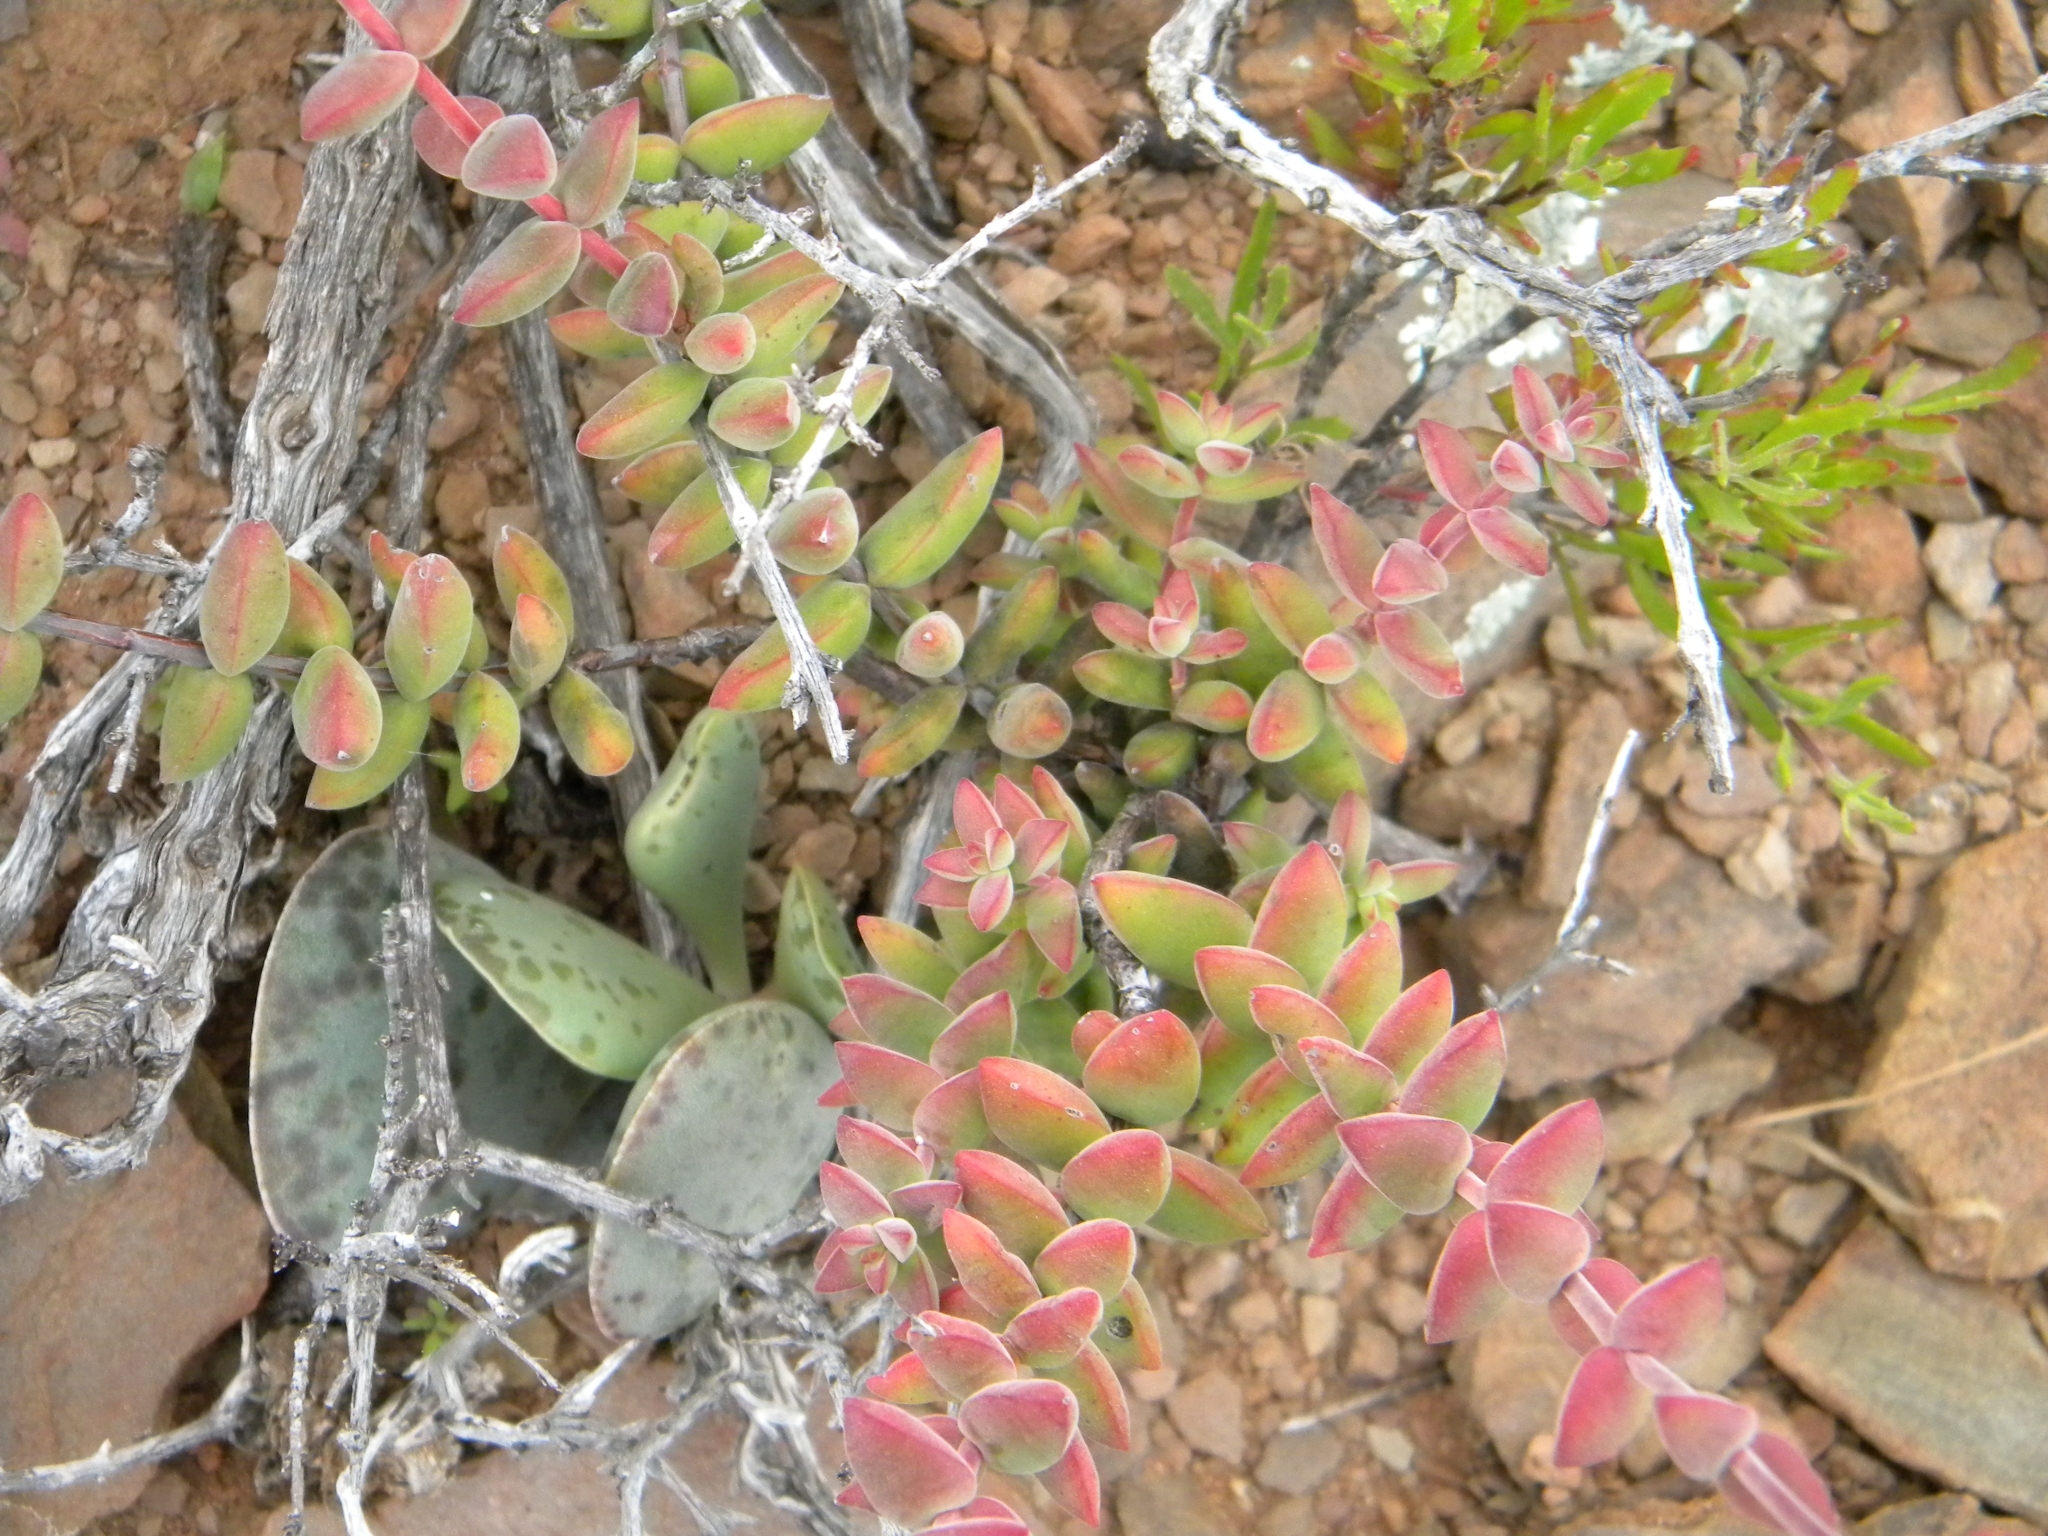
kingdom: Plantae
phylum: Tracheophyta
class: Magnoliopsida
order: Saxifragales
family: Crassulaceae
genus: Crassula
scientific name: Crassula subaphylla
